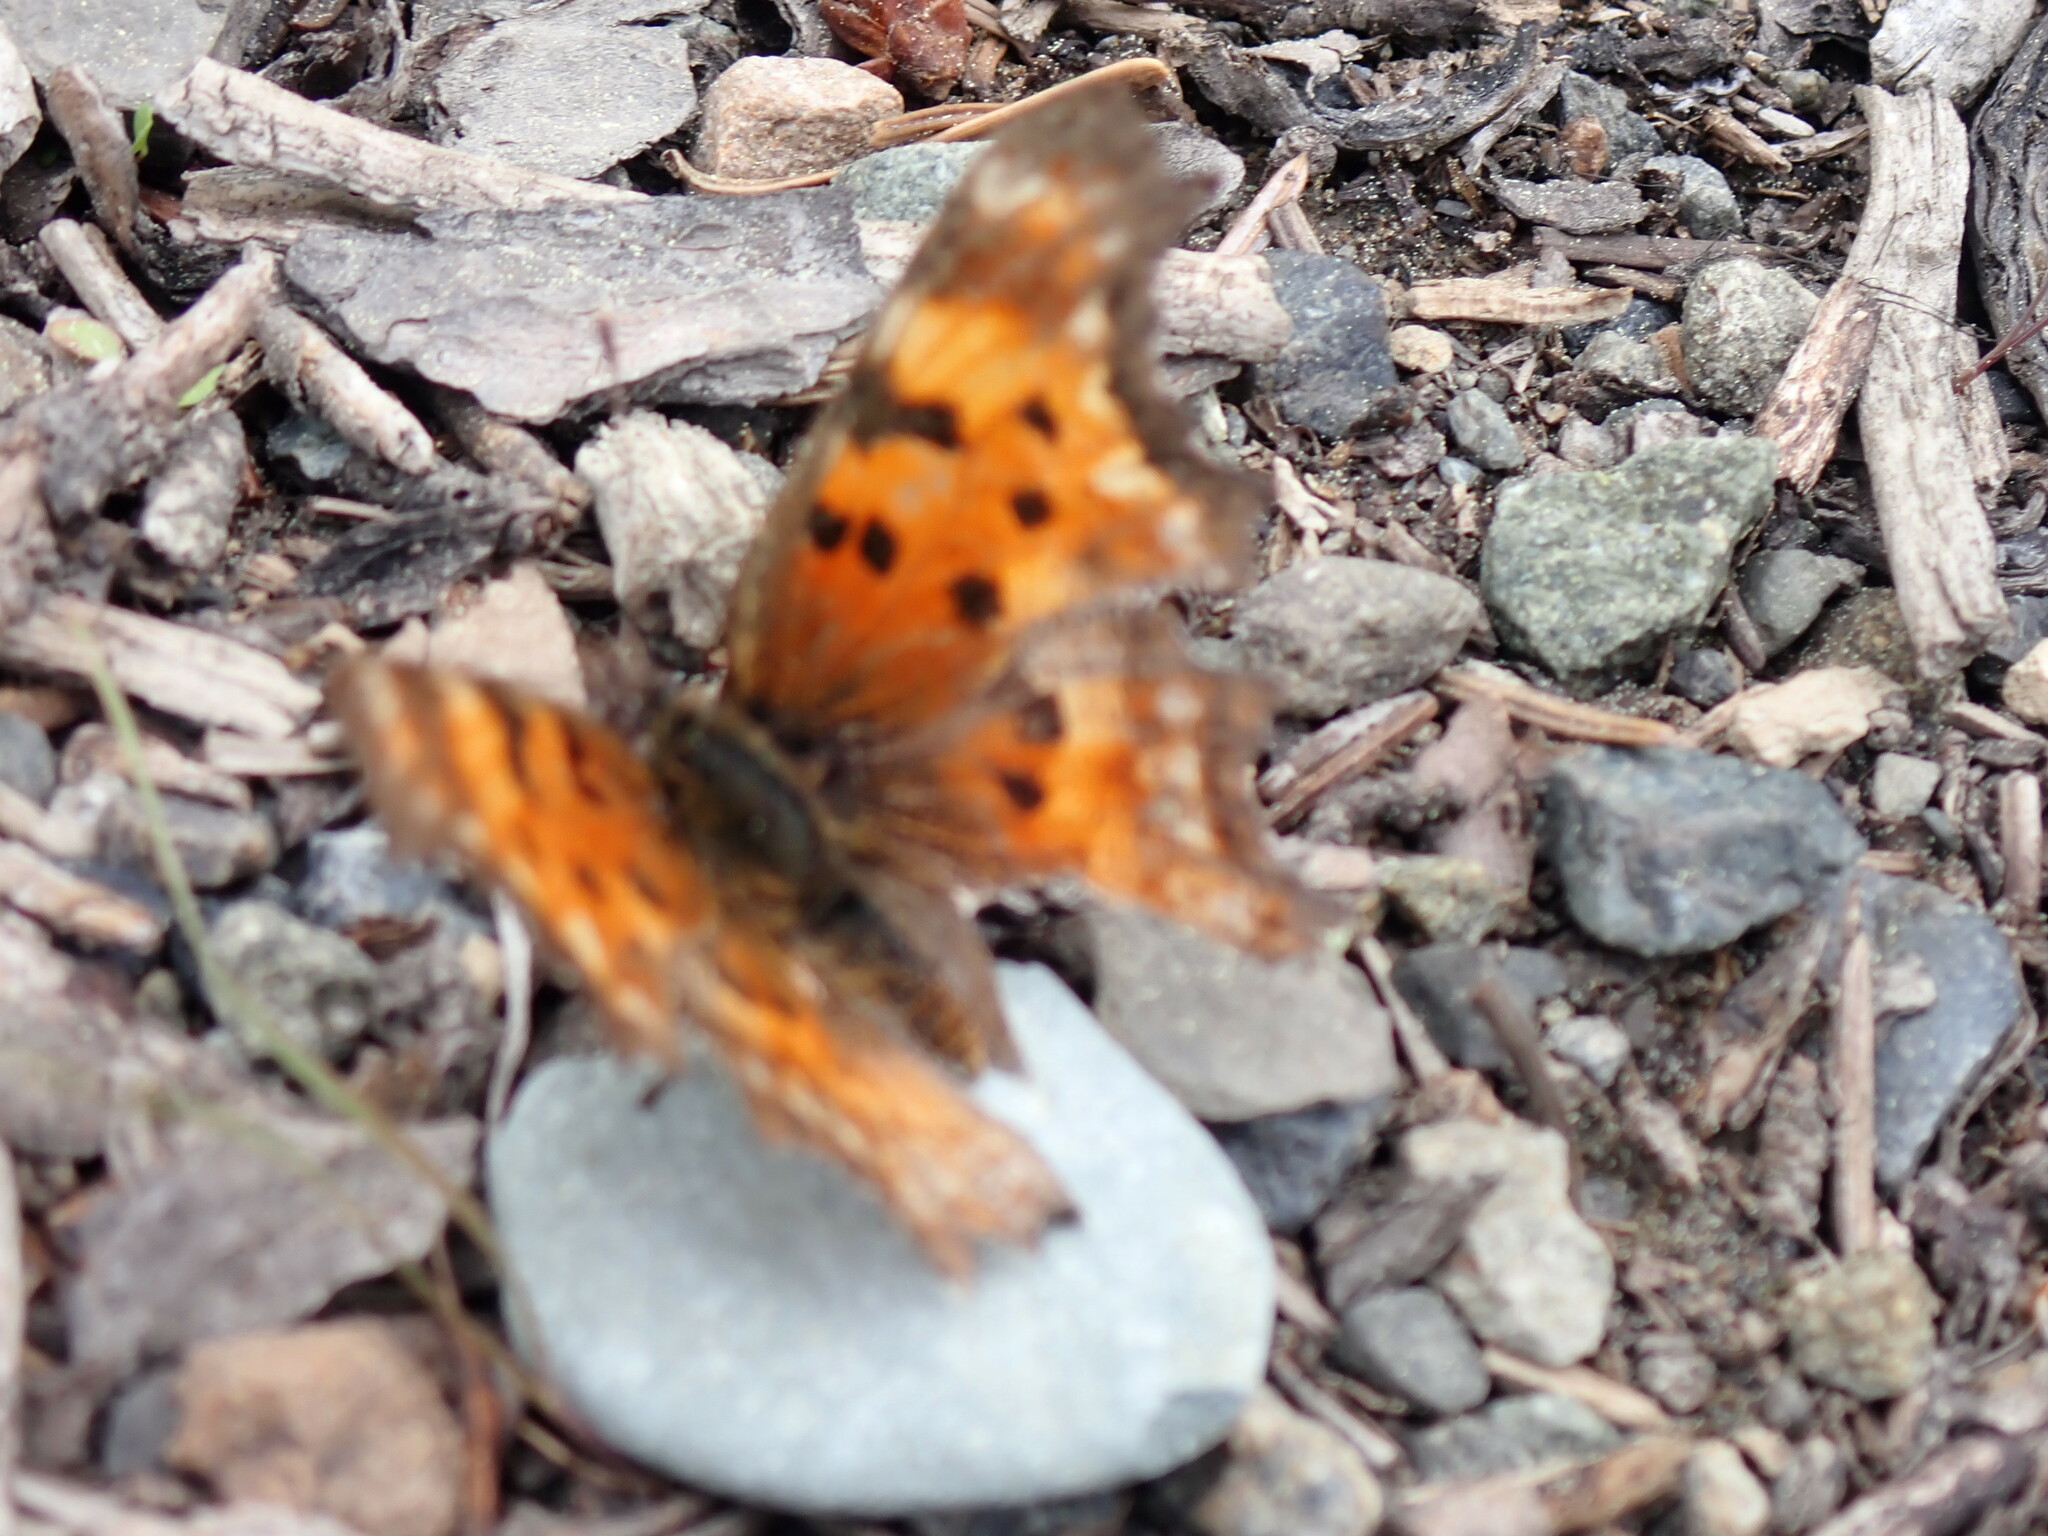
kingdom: Animalia
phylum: Arthropoda
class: Insecta
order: Lepidoptera
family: Nymphalidae
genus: Polygonia
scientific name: Polygonia gracilis
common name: Hoary comma
